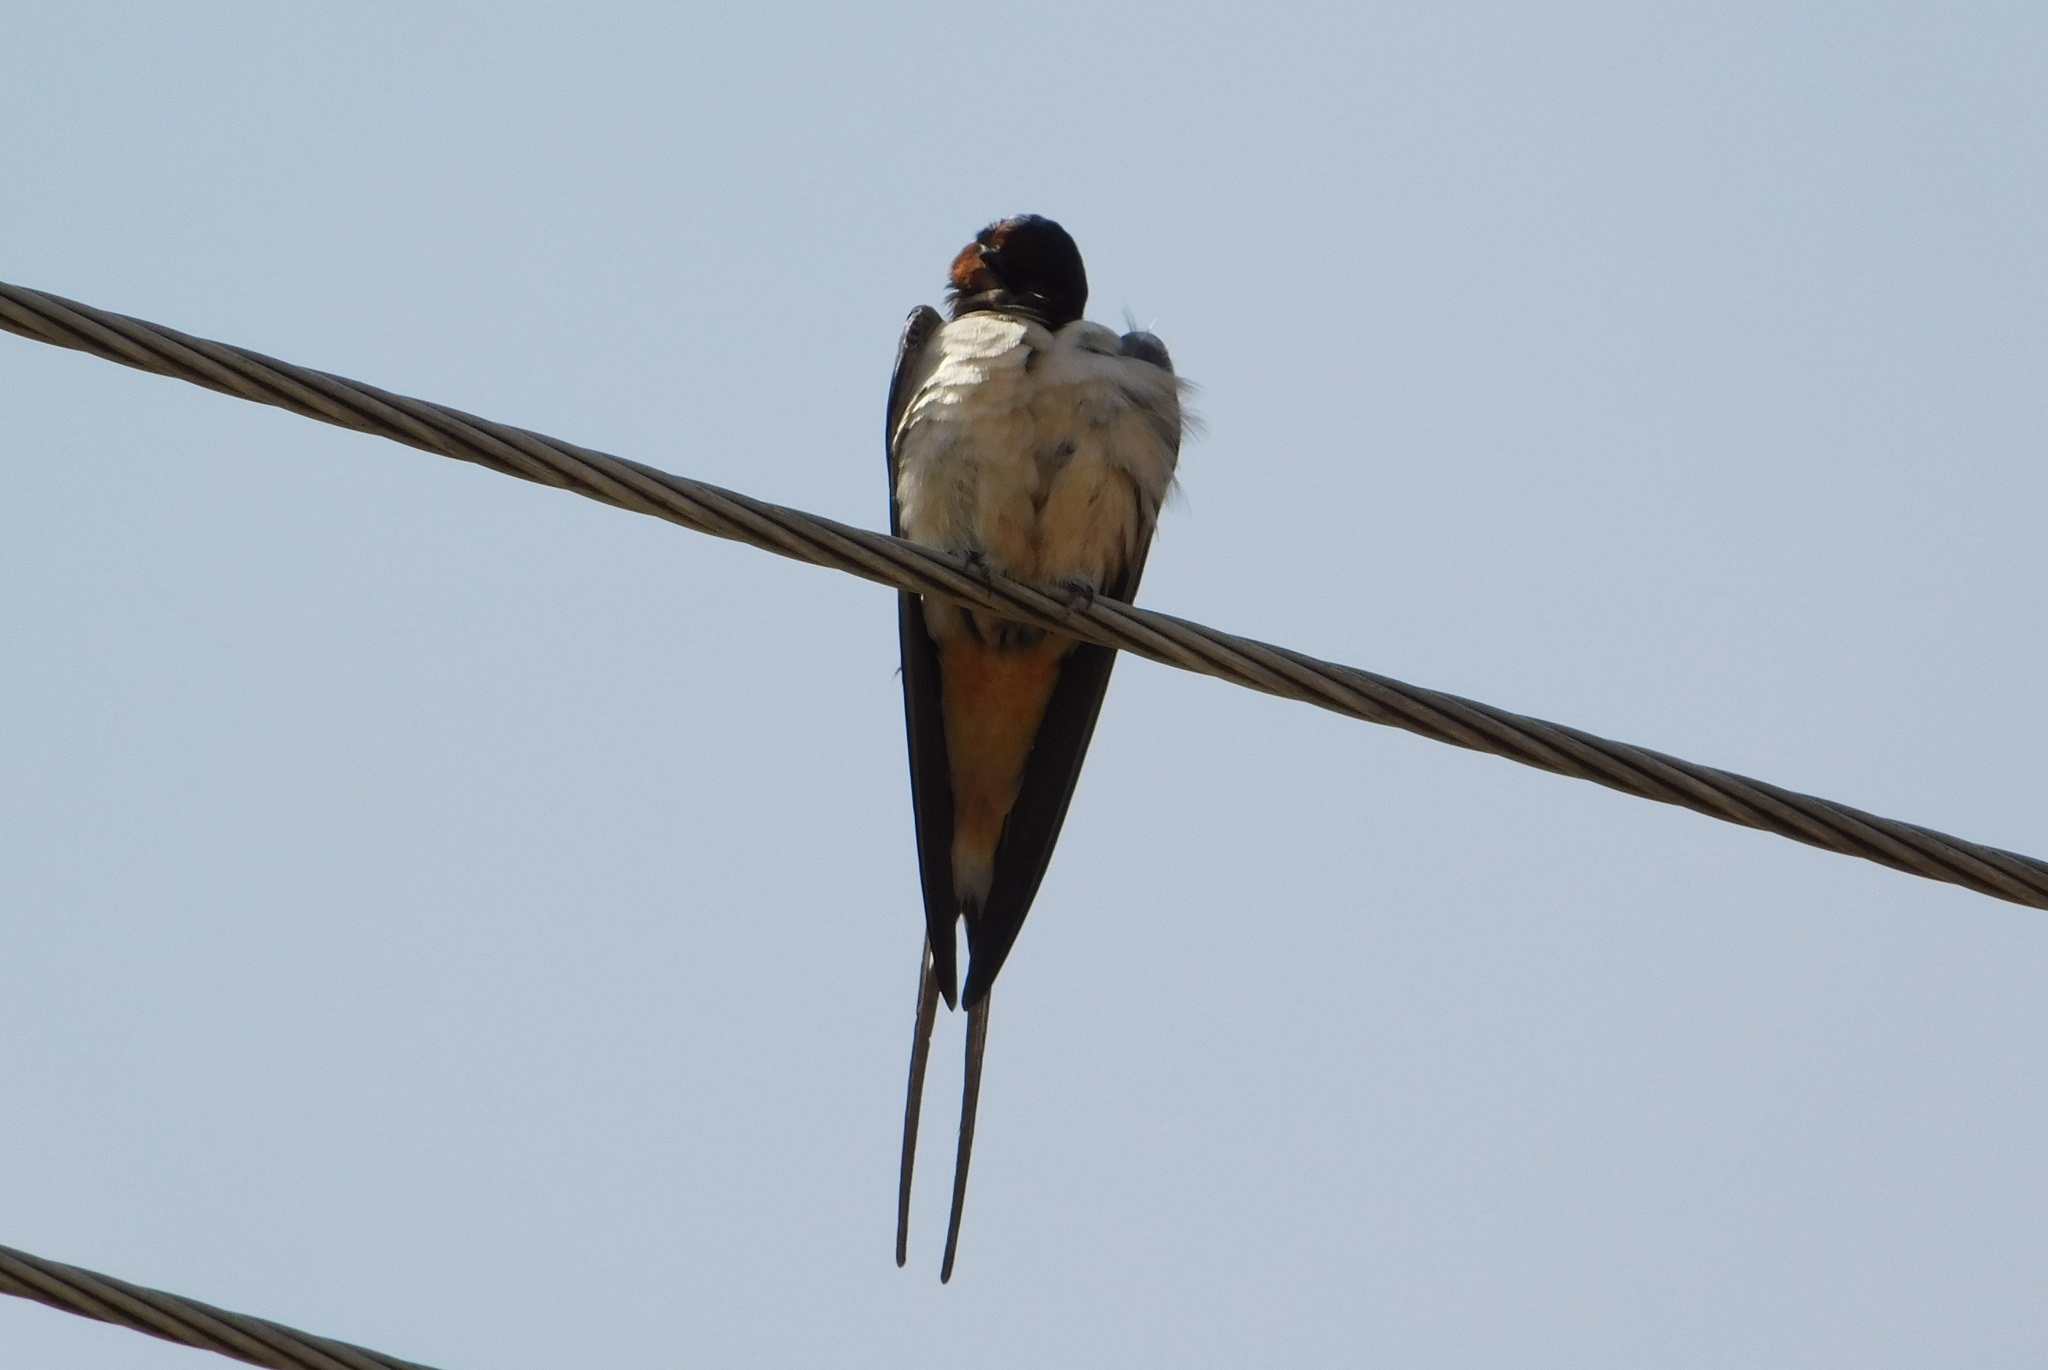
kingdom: Animalia
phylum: Chordata
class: Aves
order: Passeriformes
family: Hirundinidae
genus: Hirundo
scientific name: Hirundo rustica
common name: Barn swallow
